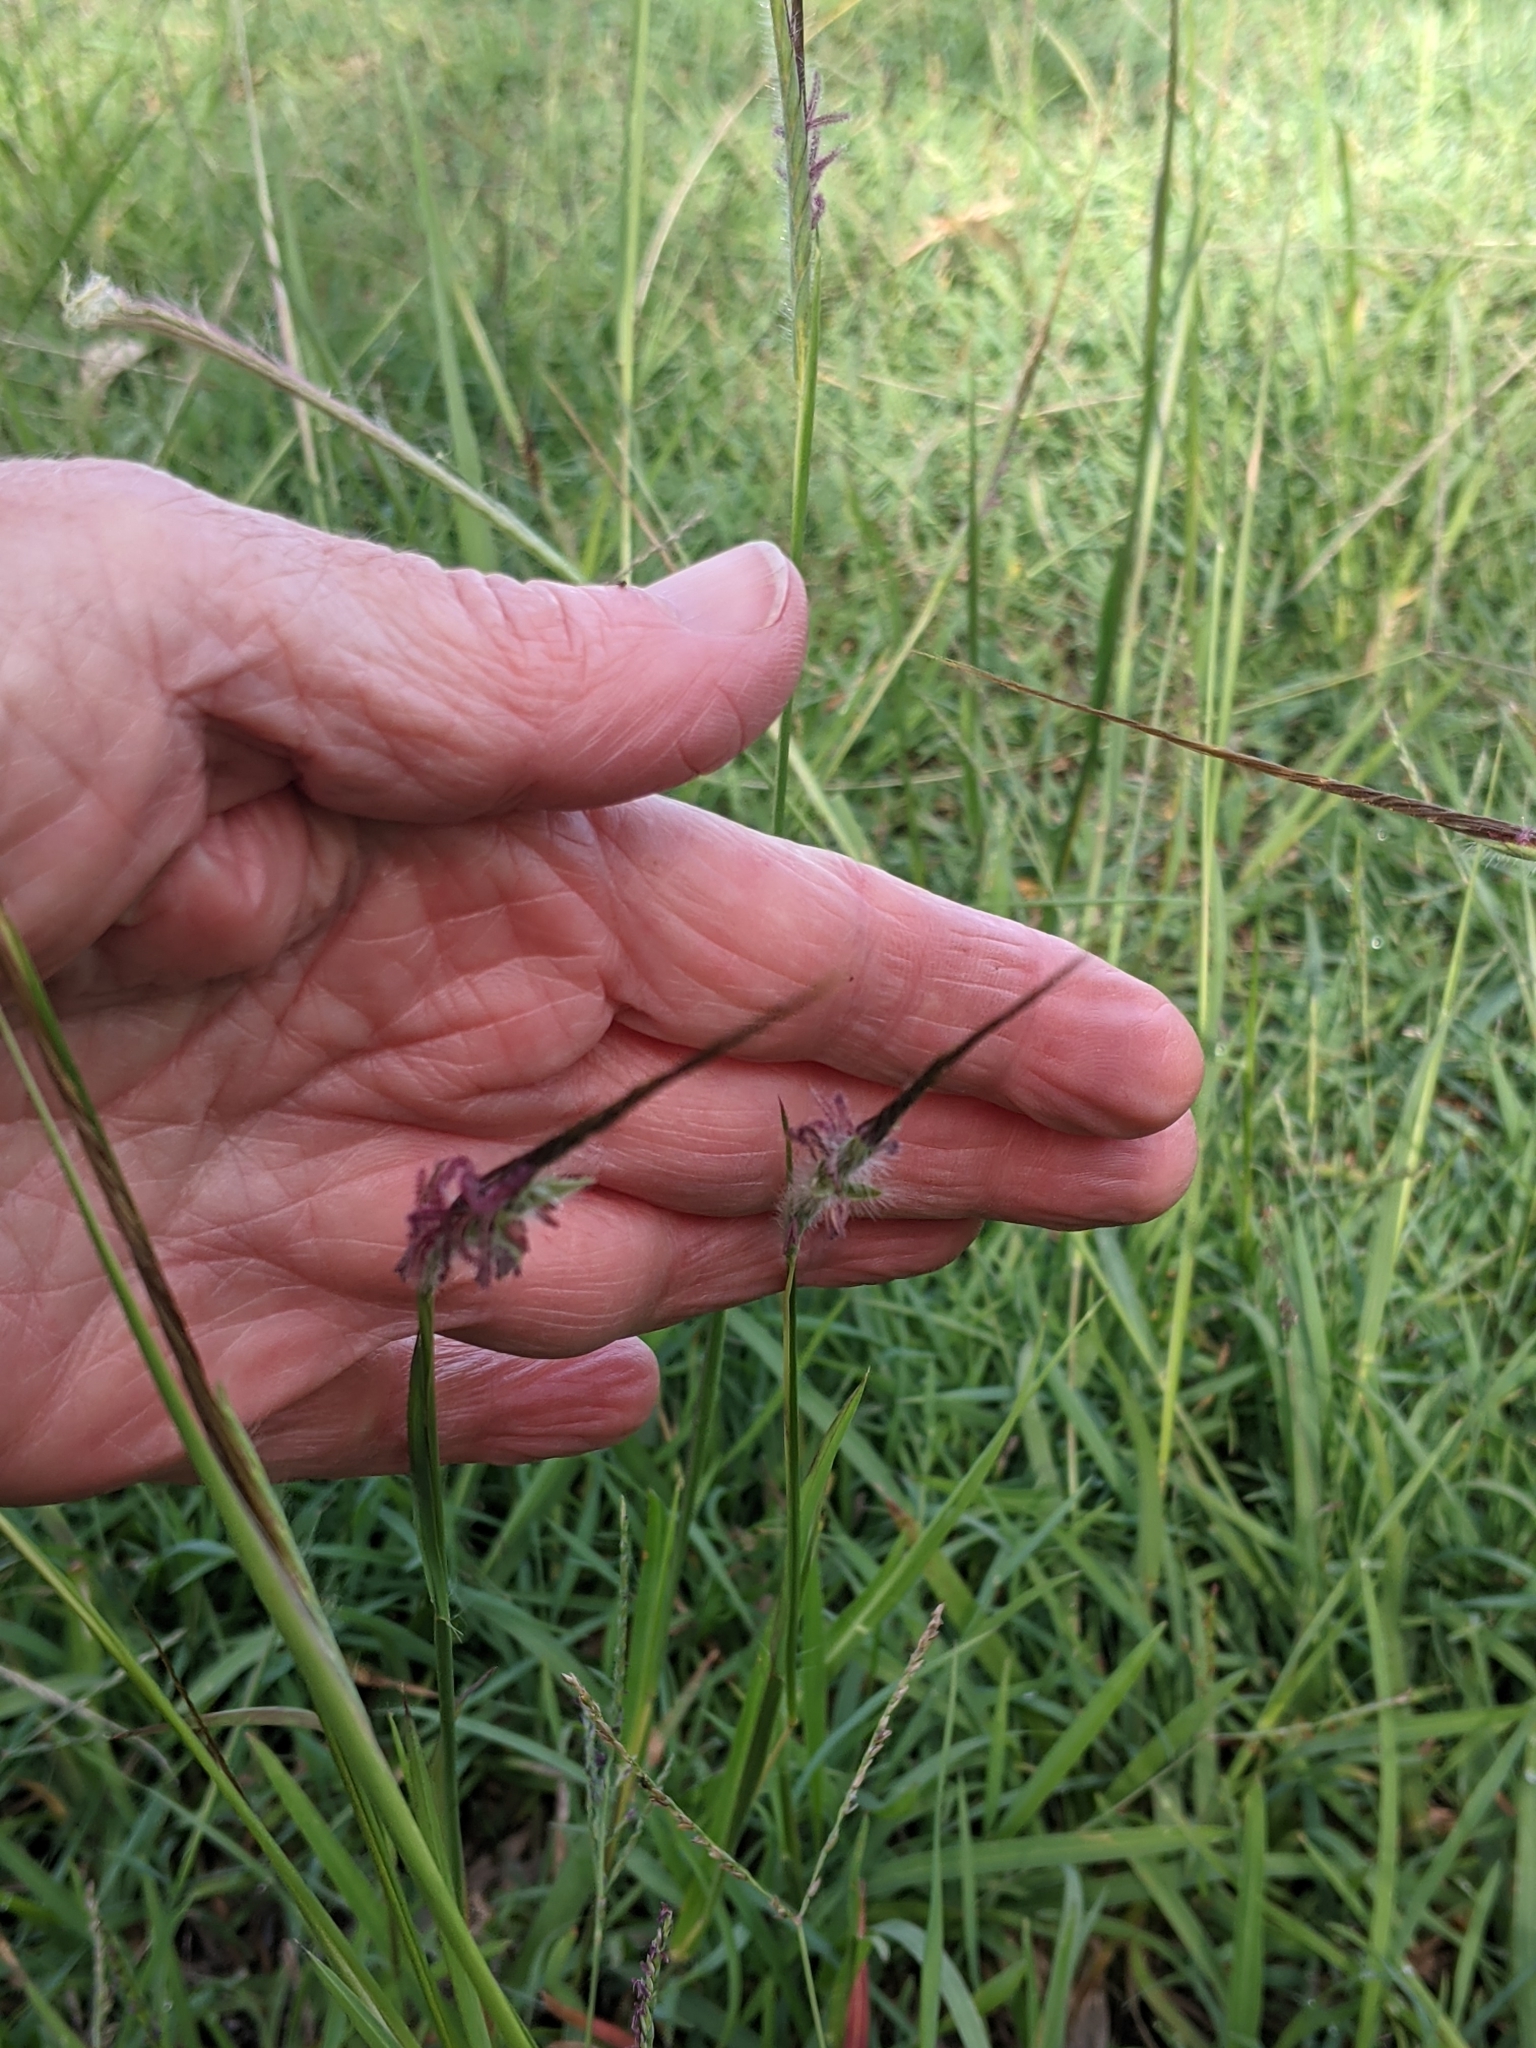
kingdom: Plantae
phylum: Tracheophyta
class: Liliopsida
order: Poales
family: Poaceae
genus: Heteropogon
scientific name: Heteropogon contortus
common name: Tanglehead
